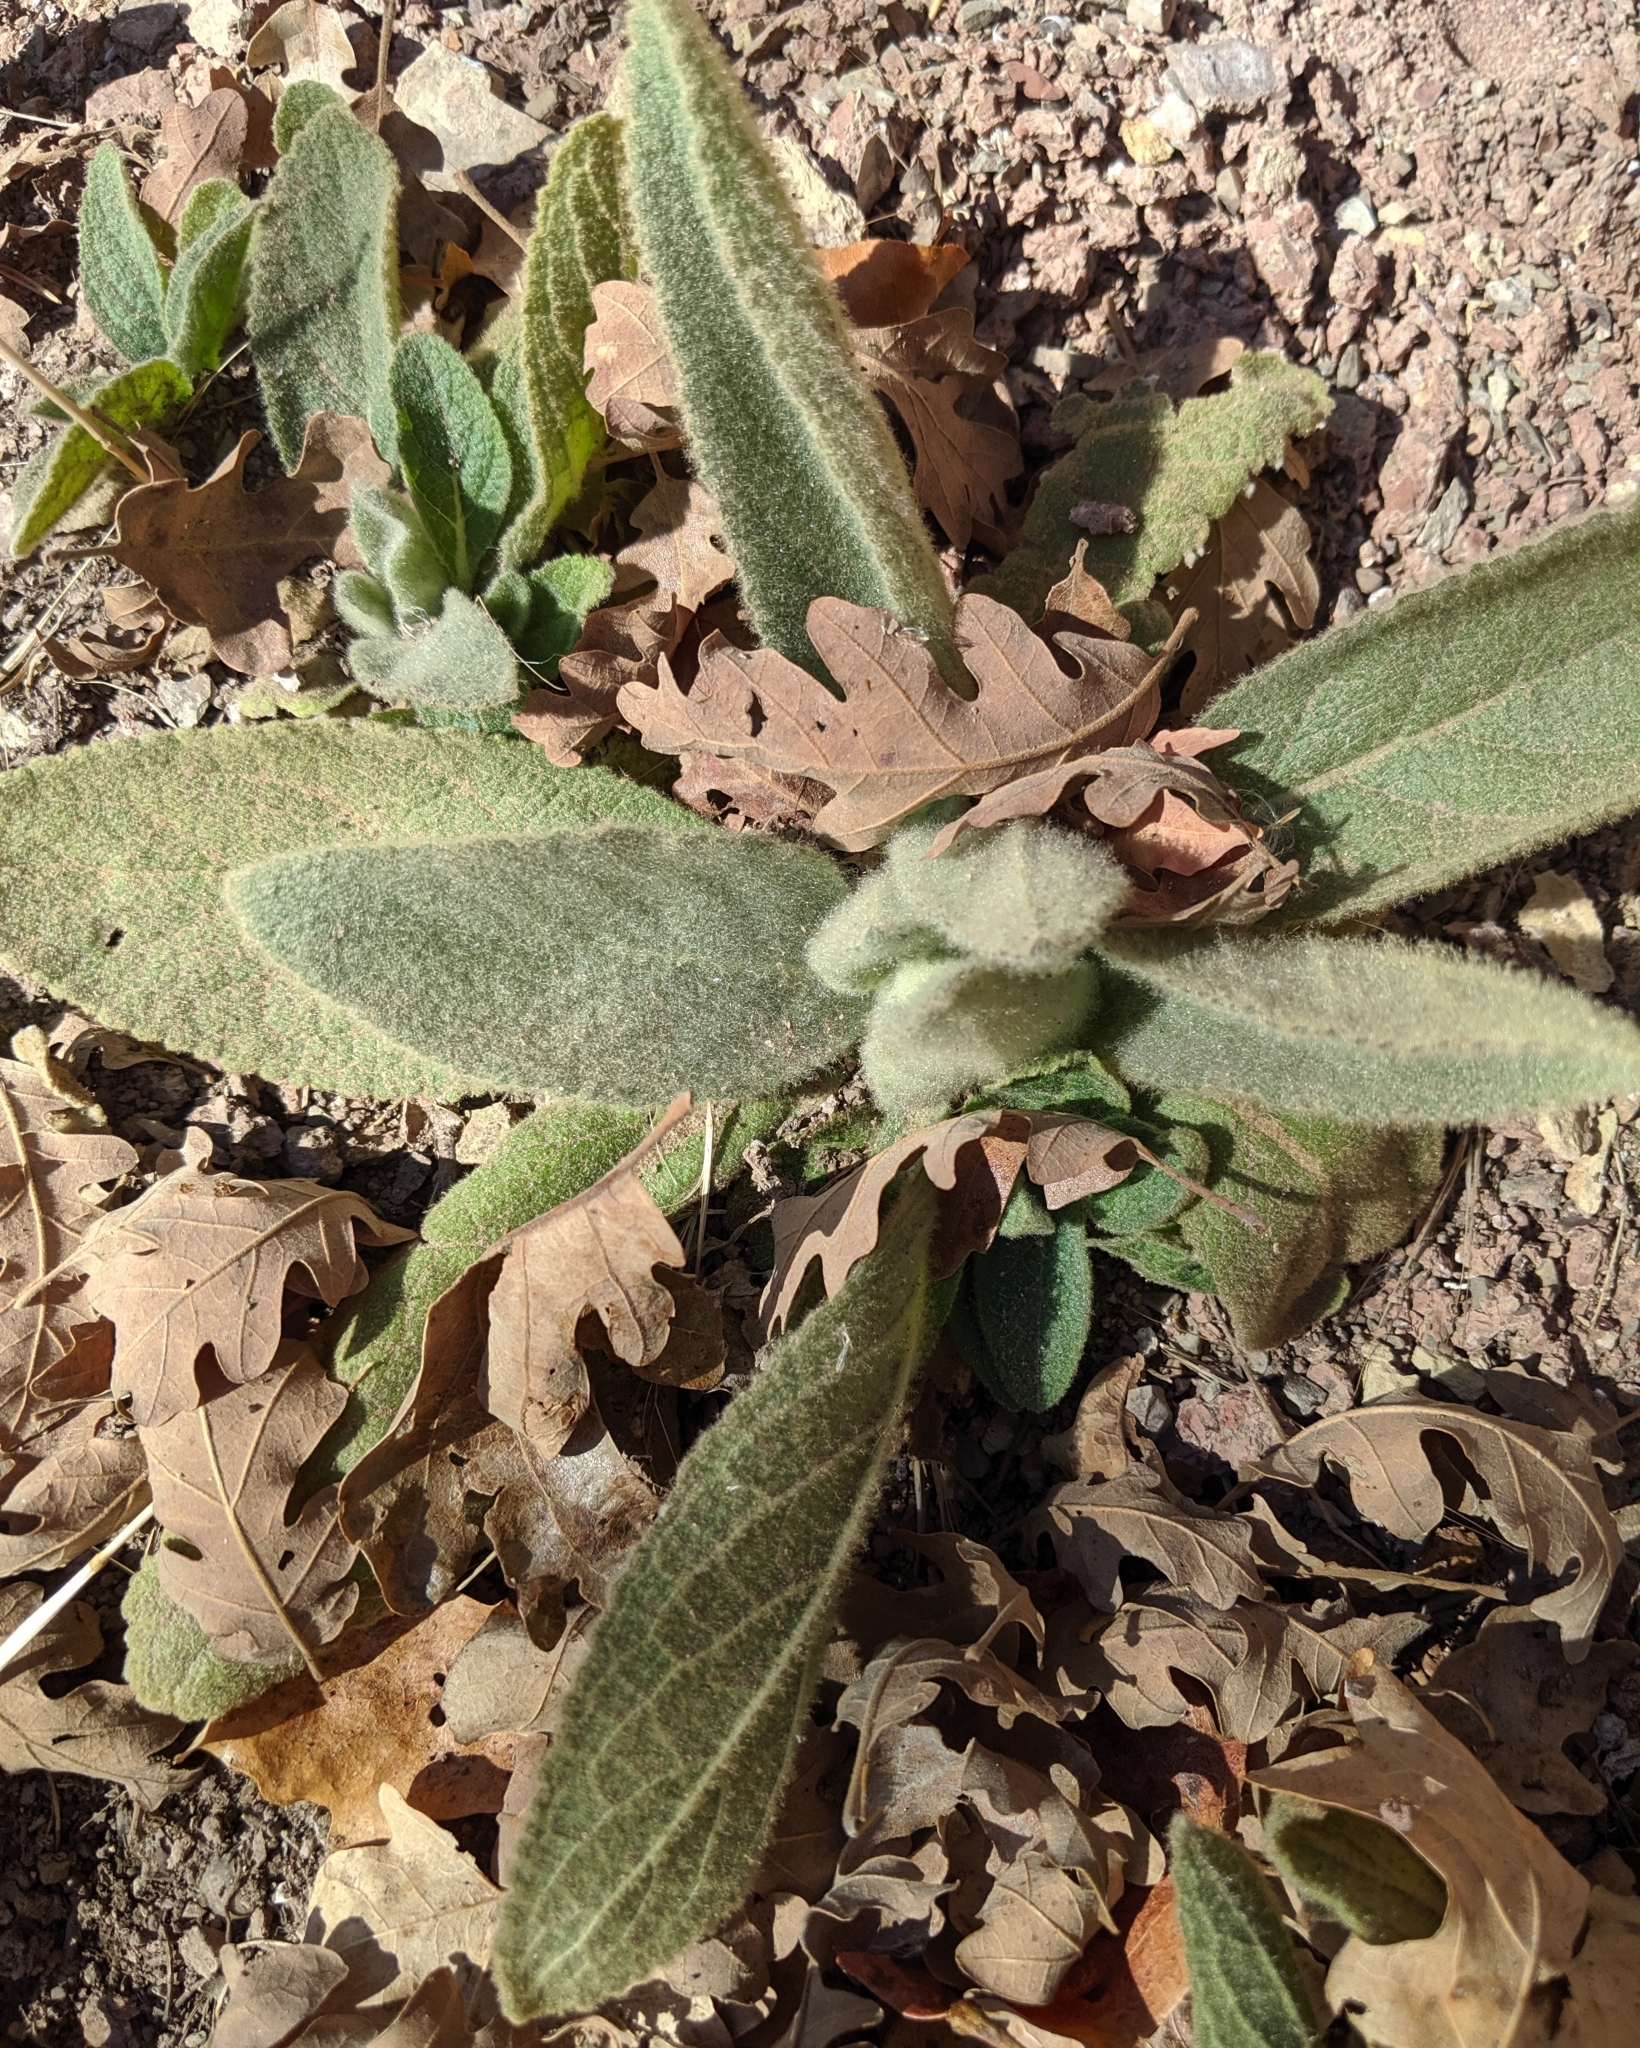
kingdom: Plantae
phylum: Tracheophyta
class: Magnoliopsida
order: Lamiales
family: Scrophulariaceae
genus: Verbascum
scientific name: Verbascum thapsus
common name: Common mullein
